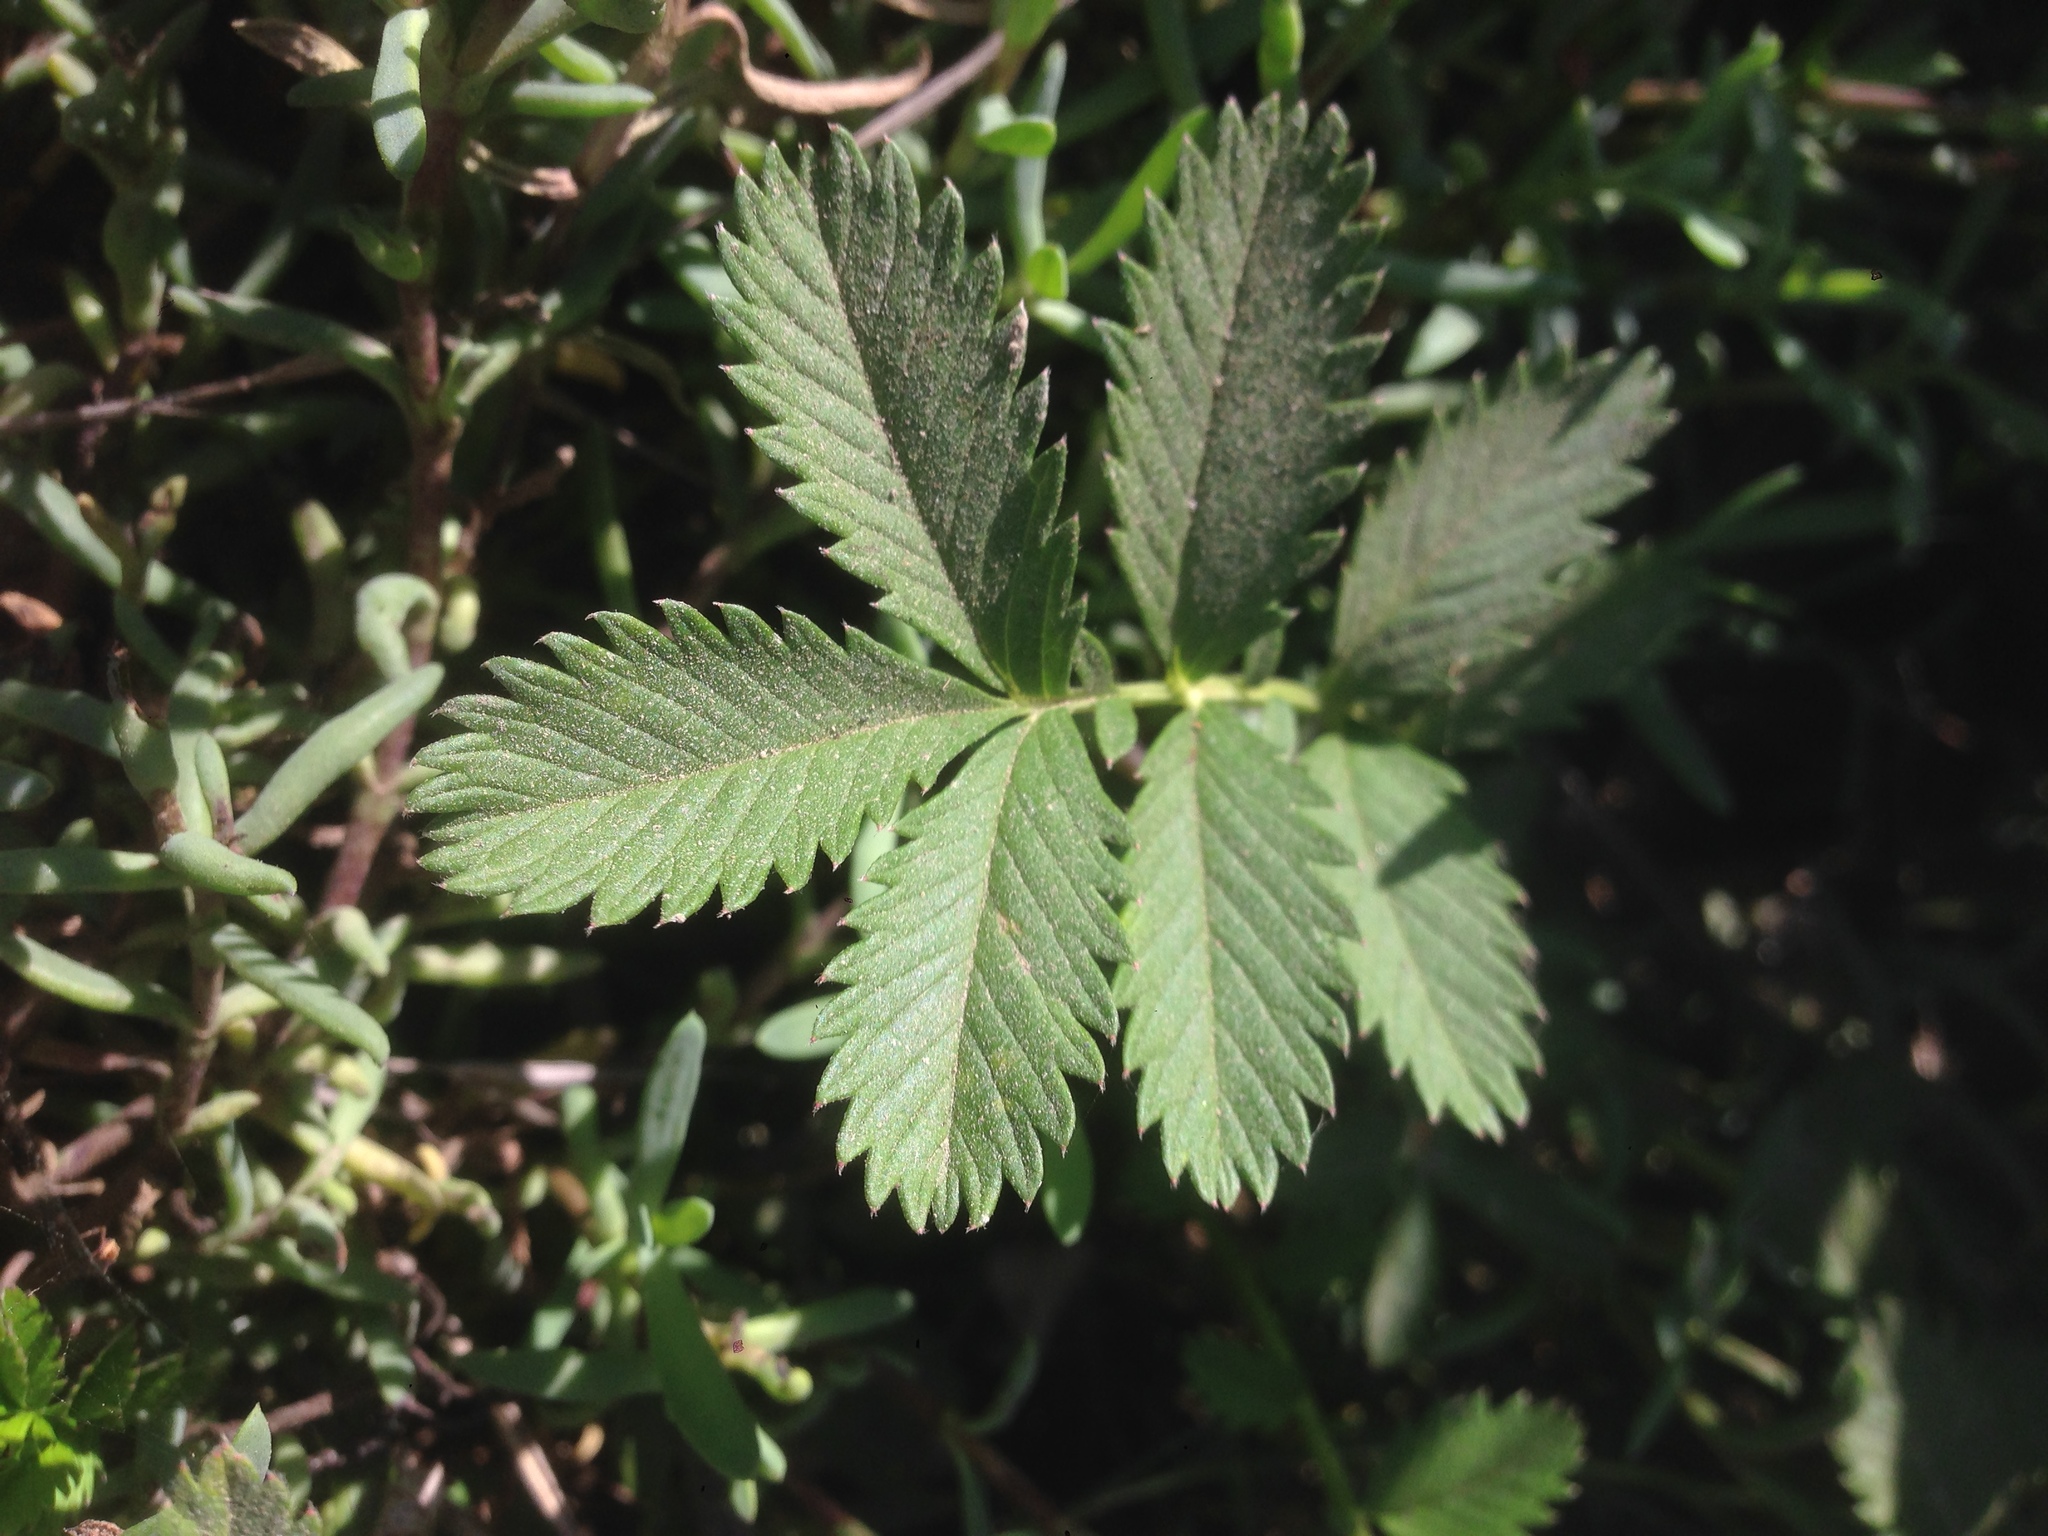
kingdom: Plantae
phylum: Tracheophyta
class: Magnoliopsida
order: Rosales
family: Rosaceae
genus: Argentina
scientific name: Argentina anserina
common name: Common silverweed
